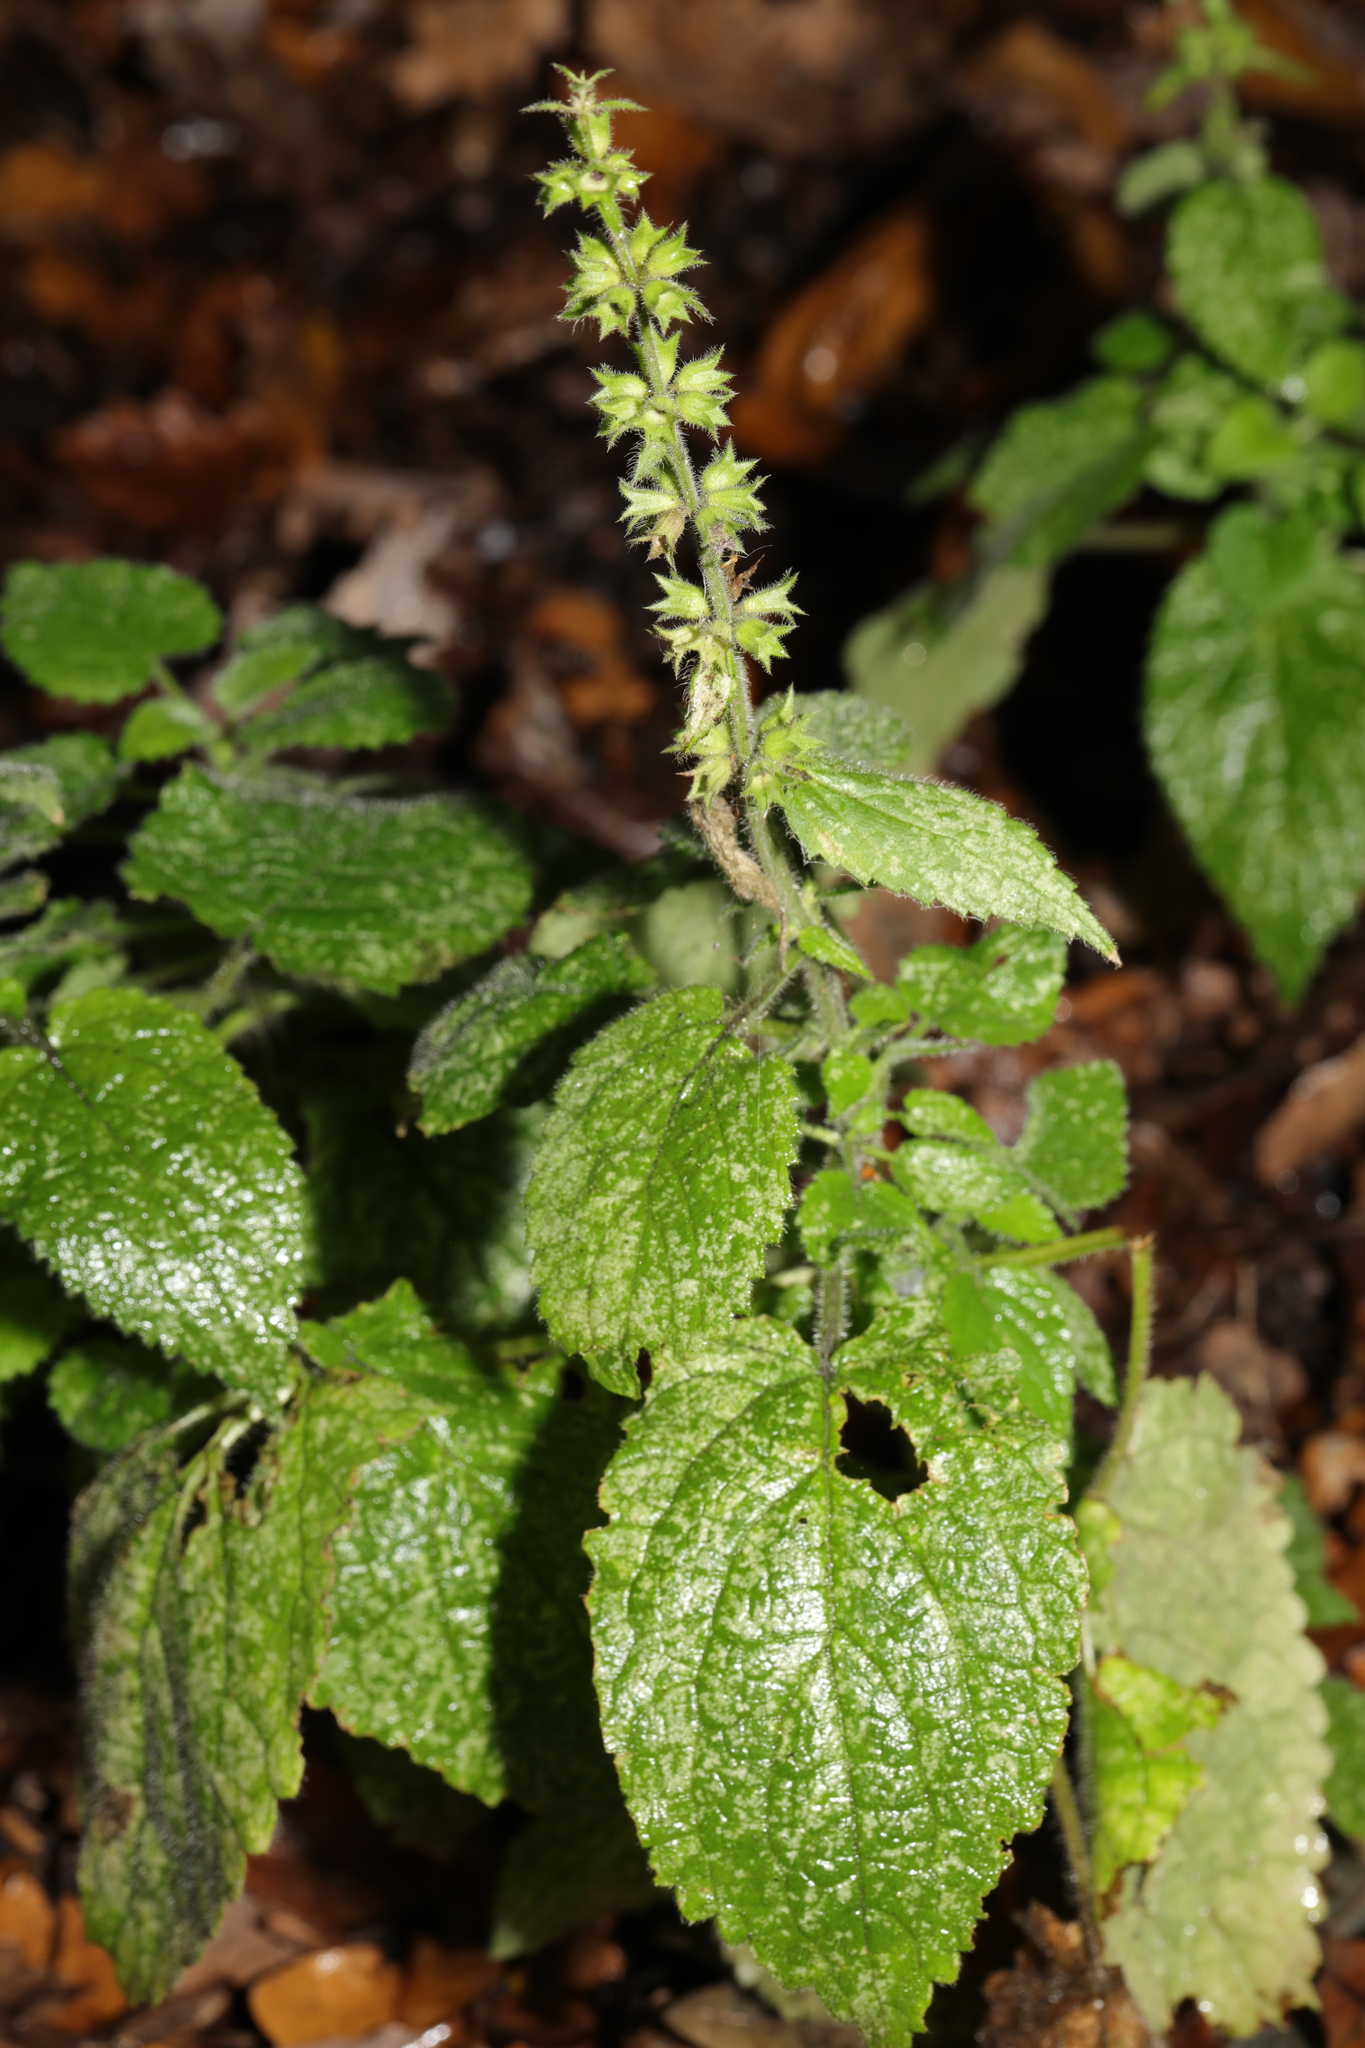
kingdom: Plantae
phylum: Tracheophyta
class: Magnoliopsida
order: Lamiales
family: Lamiaceae
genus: Stachys
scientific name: Stachys sylvatica
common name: Hedge woundwort
